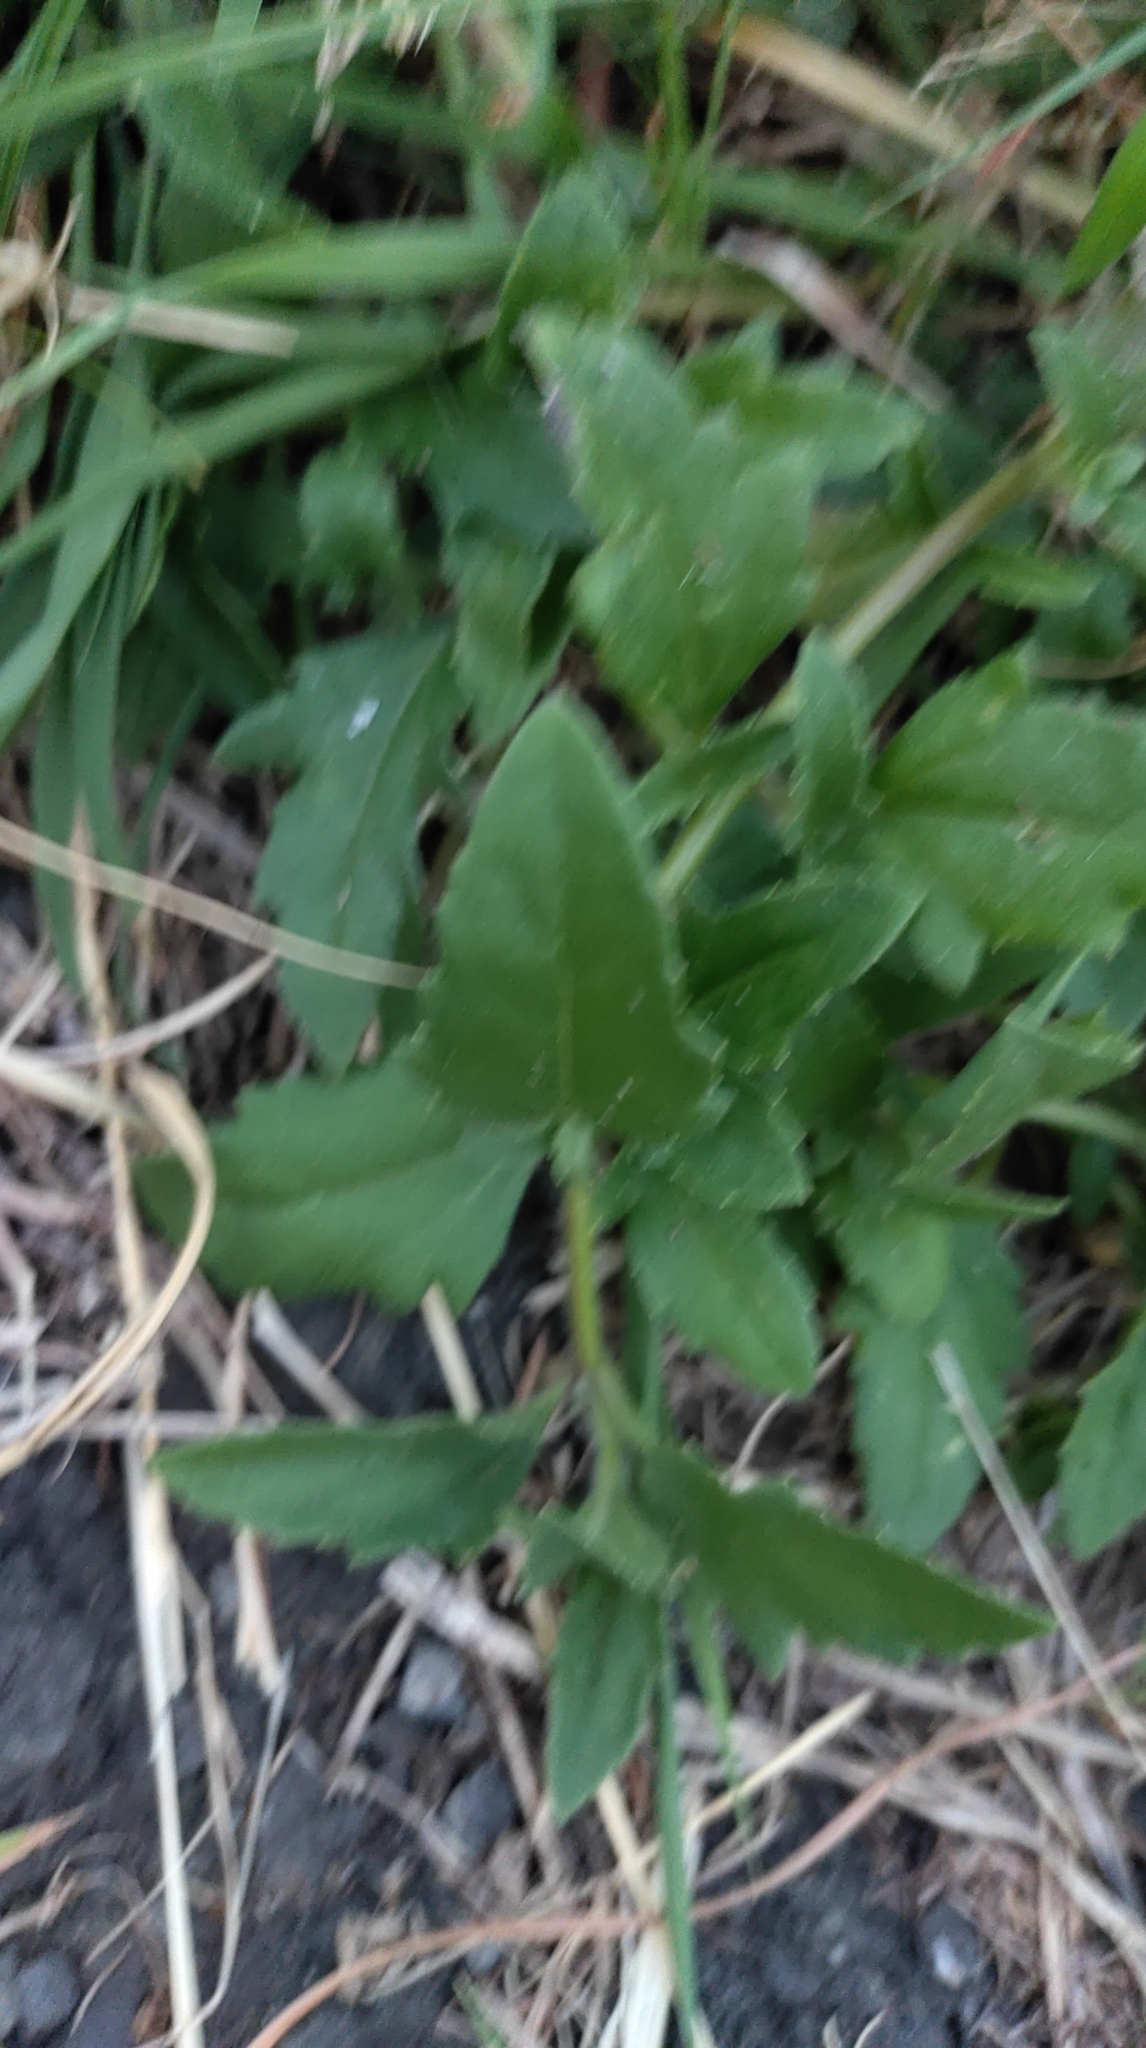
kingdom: Plantae
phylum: Tracheophyta
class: Magnoliopsida
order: Asterales
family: Asteraceae
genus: Tridax
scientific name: Tridax procumbens
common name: Coatbuttons
